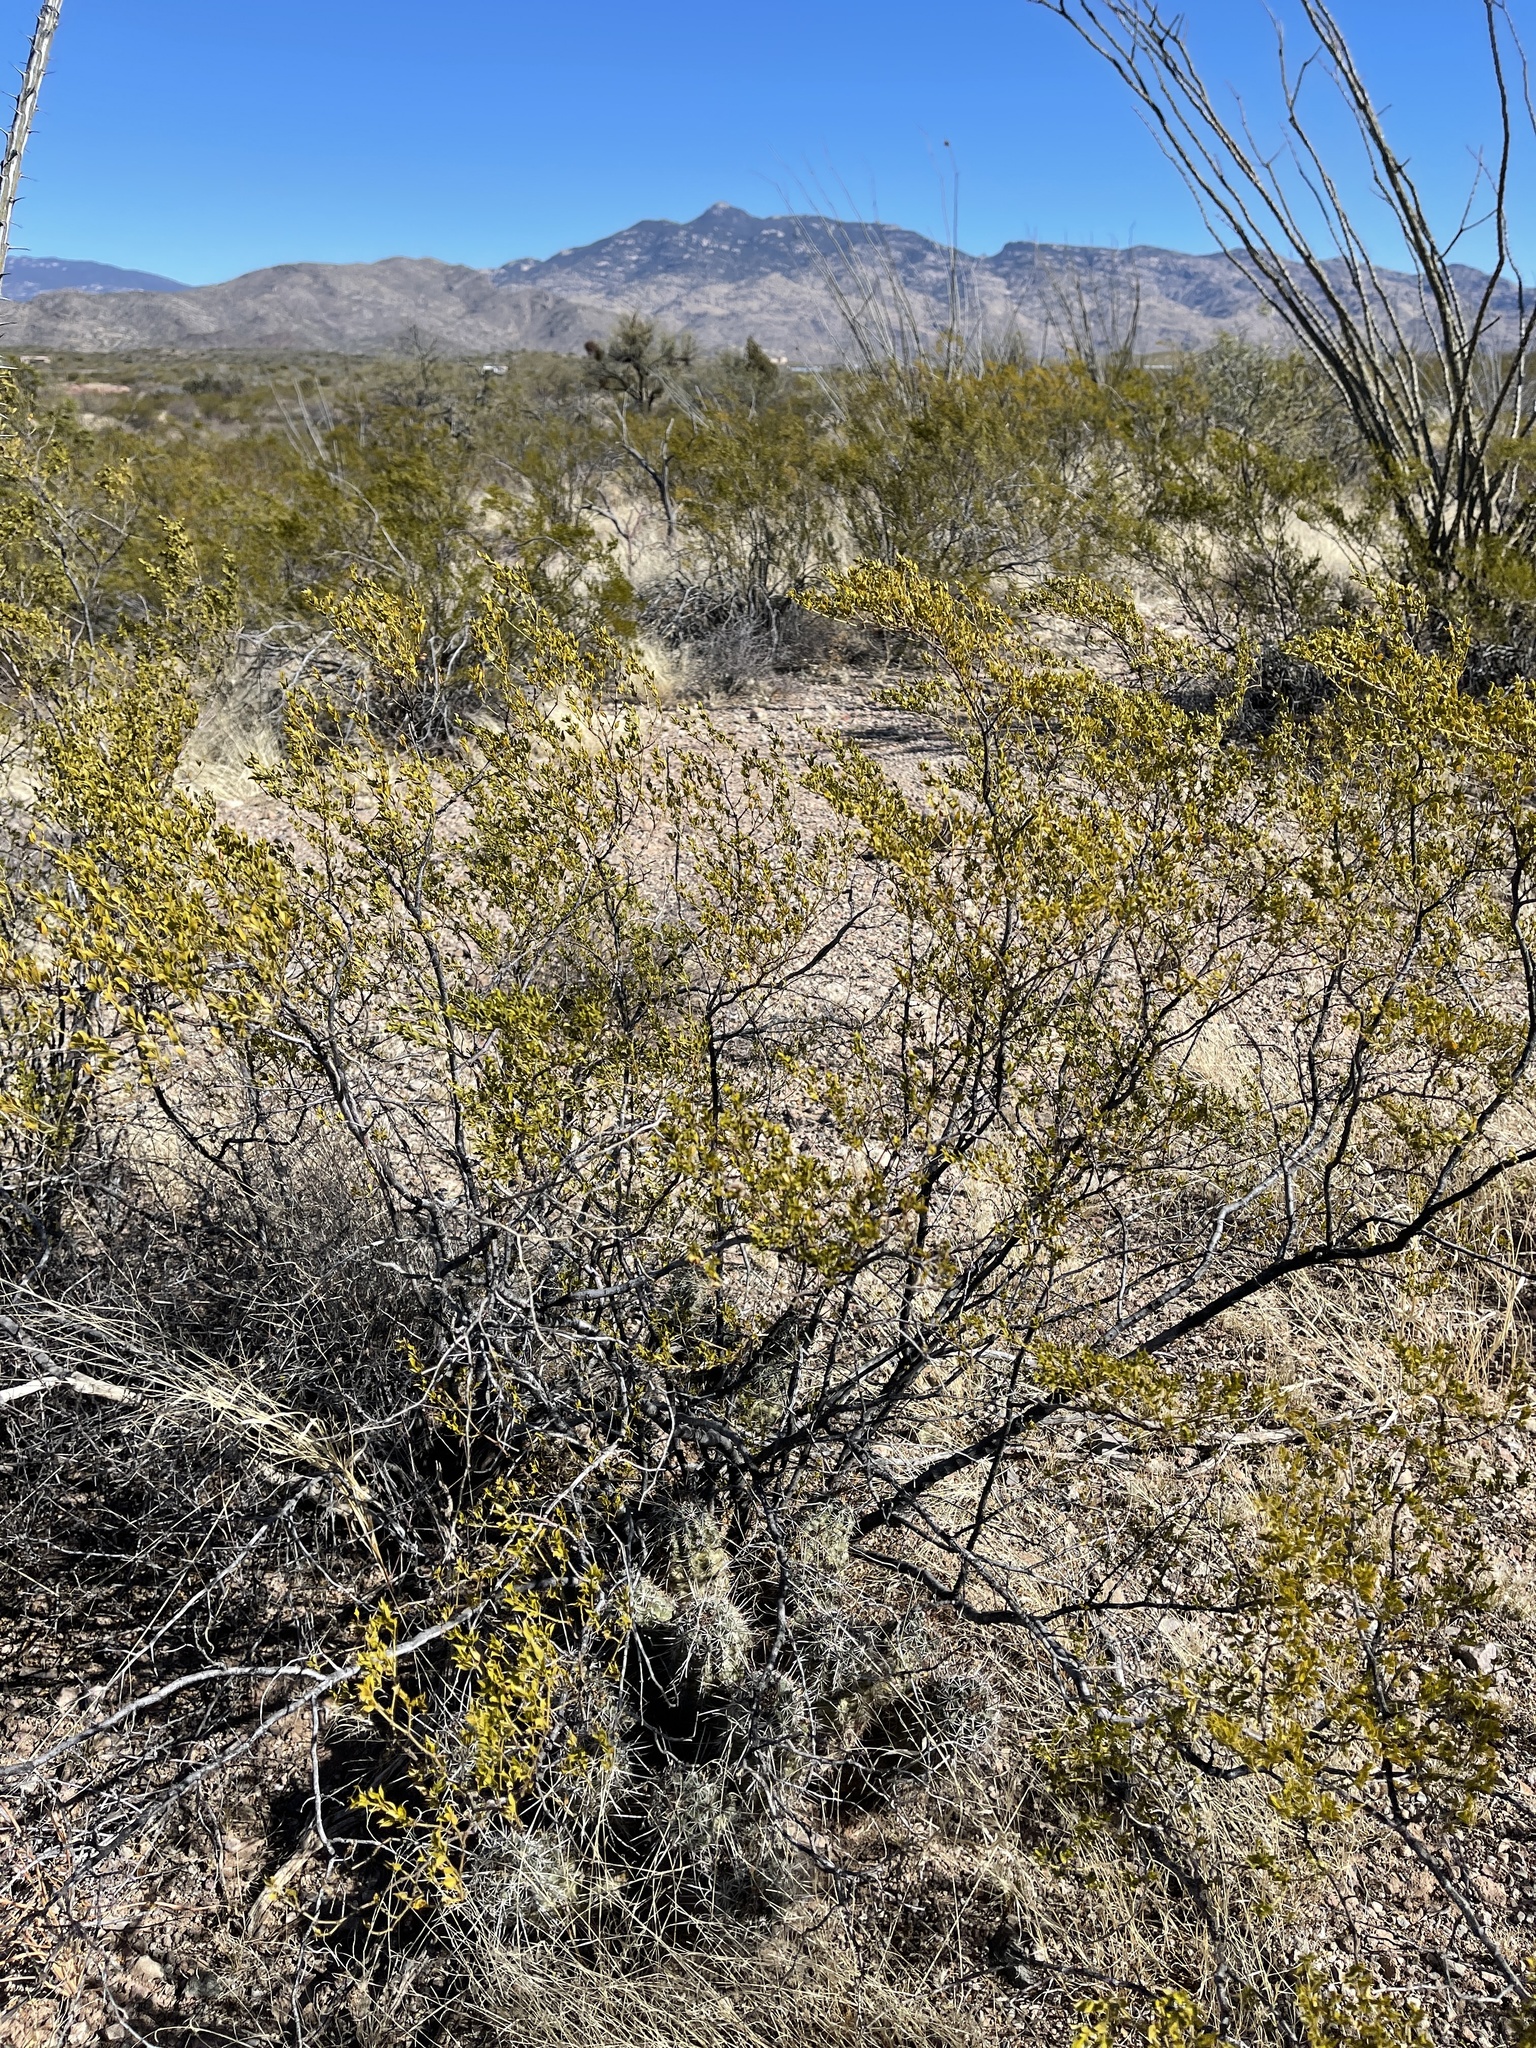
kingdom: Plantae
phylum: Tracheophyta
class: Magnoliopsida
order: Zygophyllales
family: Zygophyllaceae
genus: Larrea
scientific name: Larrea tridentata
